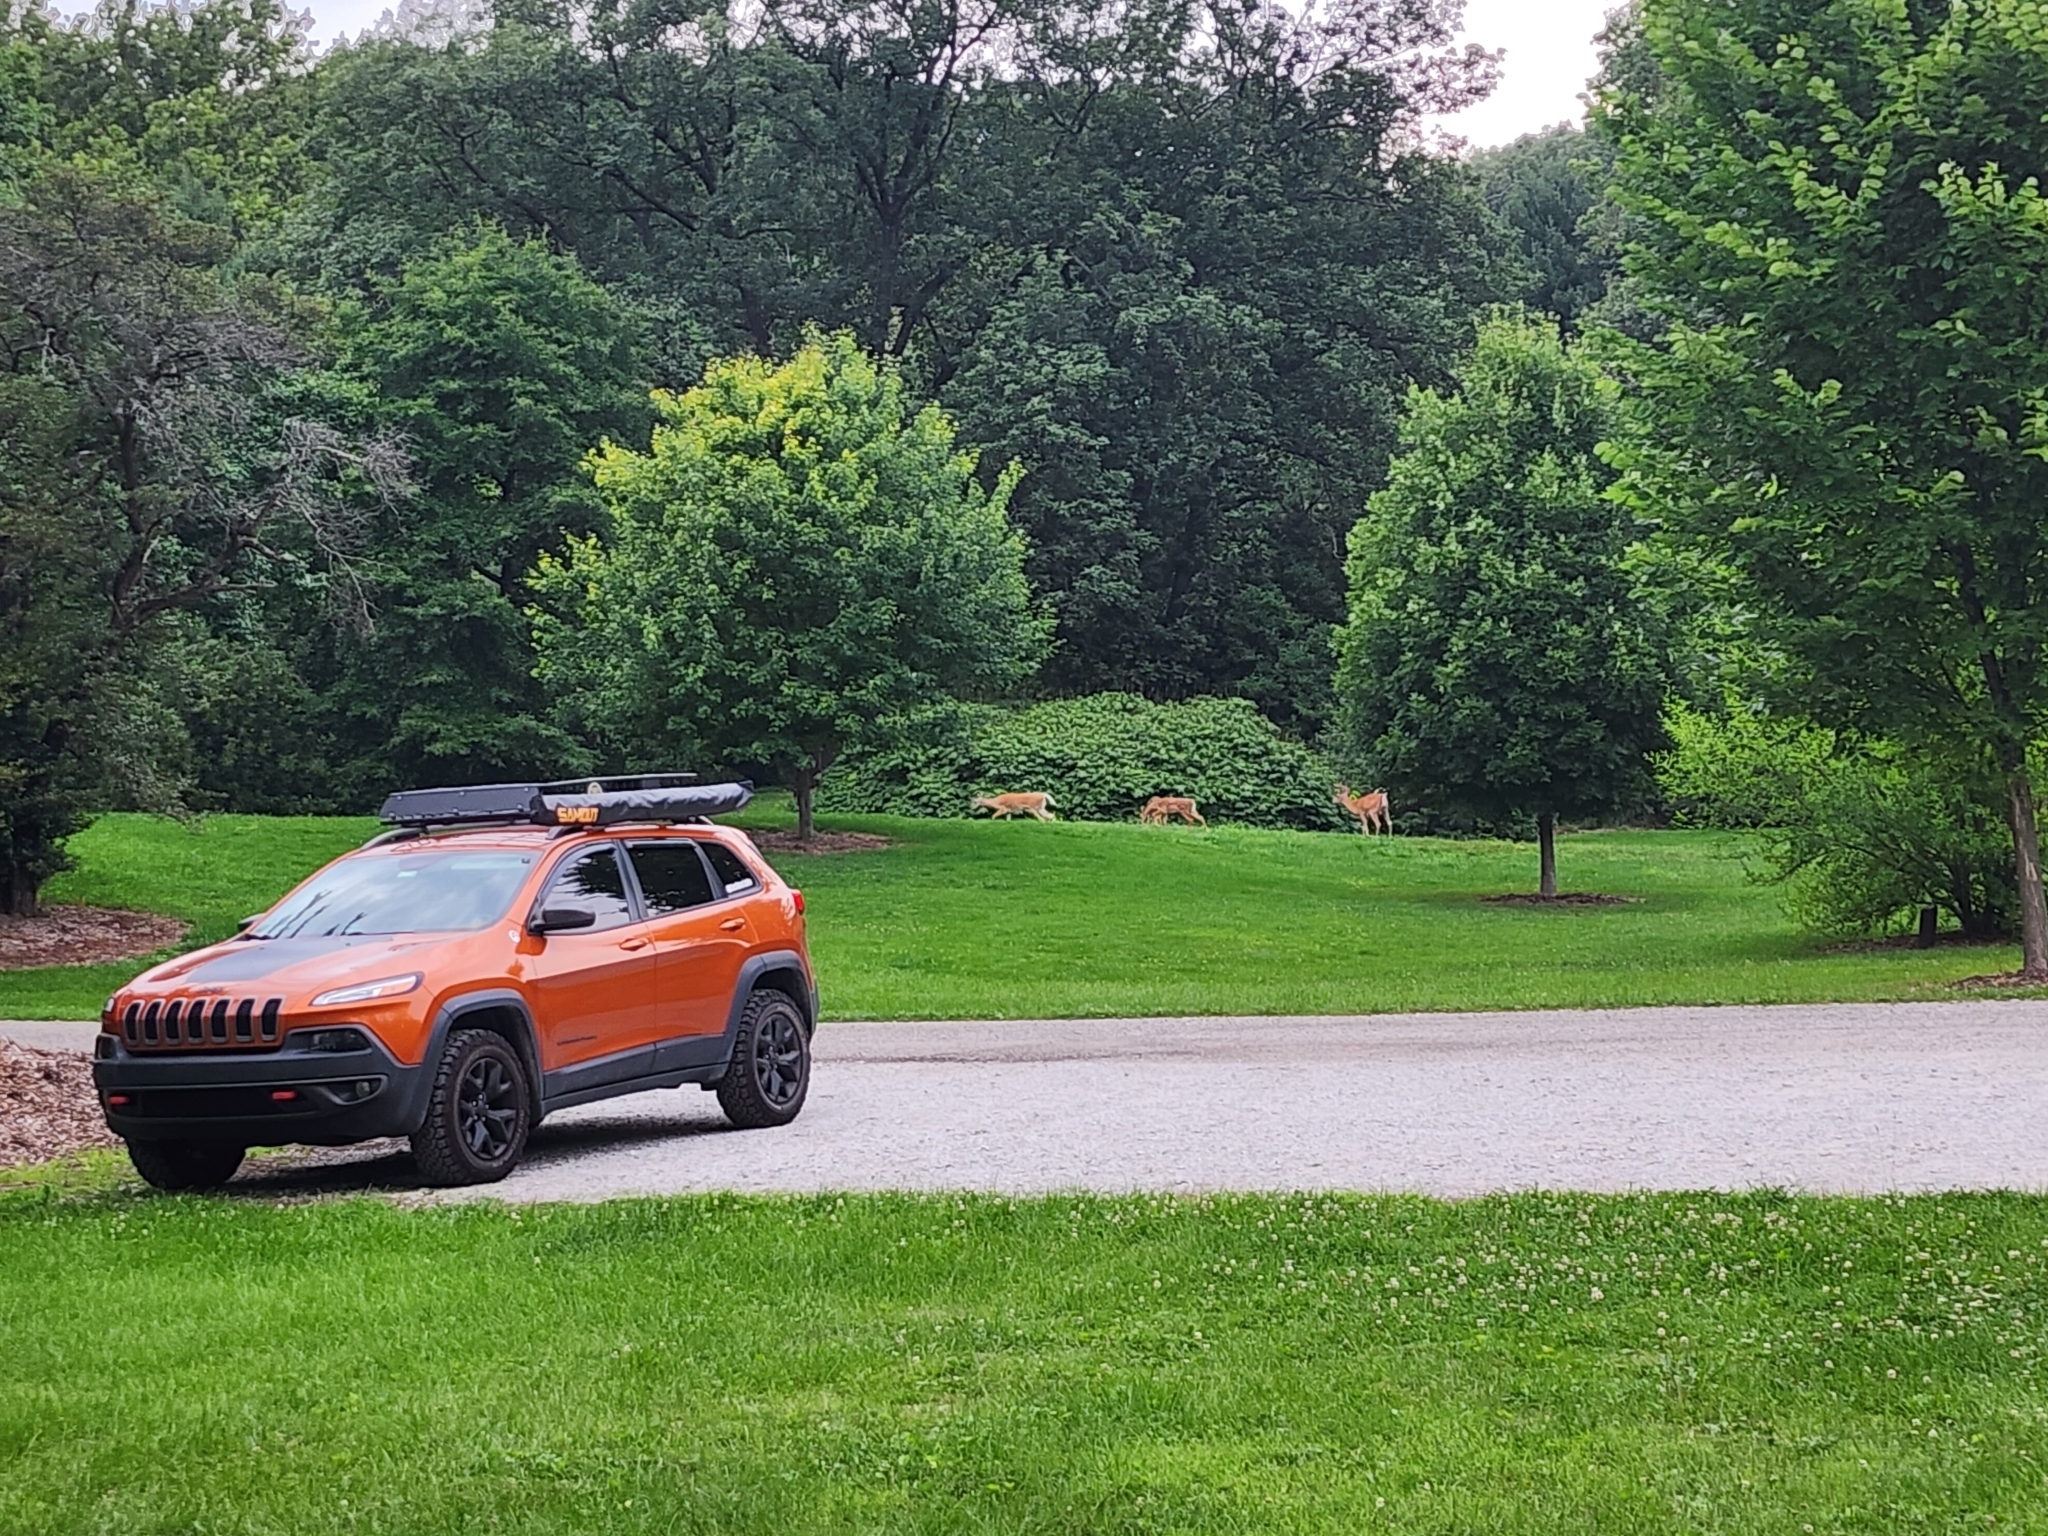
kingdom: Animalia
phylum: Chordata
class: Mammalia
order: Artiodactyla
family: Cervidae
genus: Odocoileus
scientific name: Odocoileus virginianus
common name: White-tailed deer
